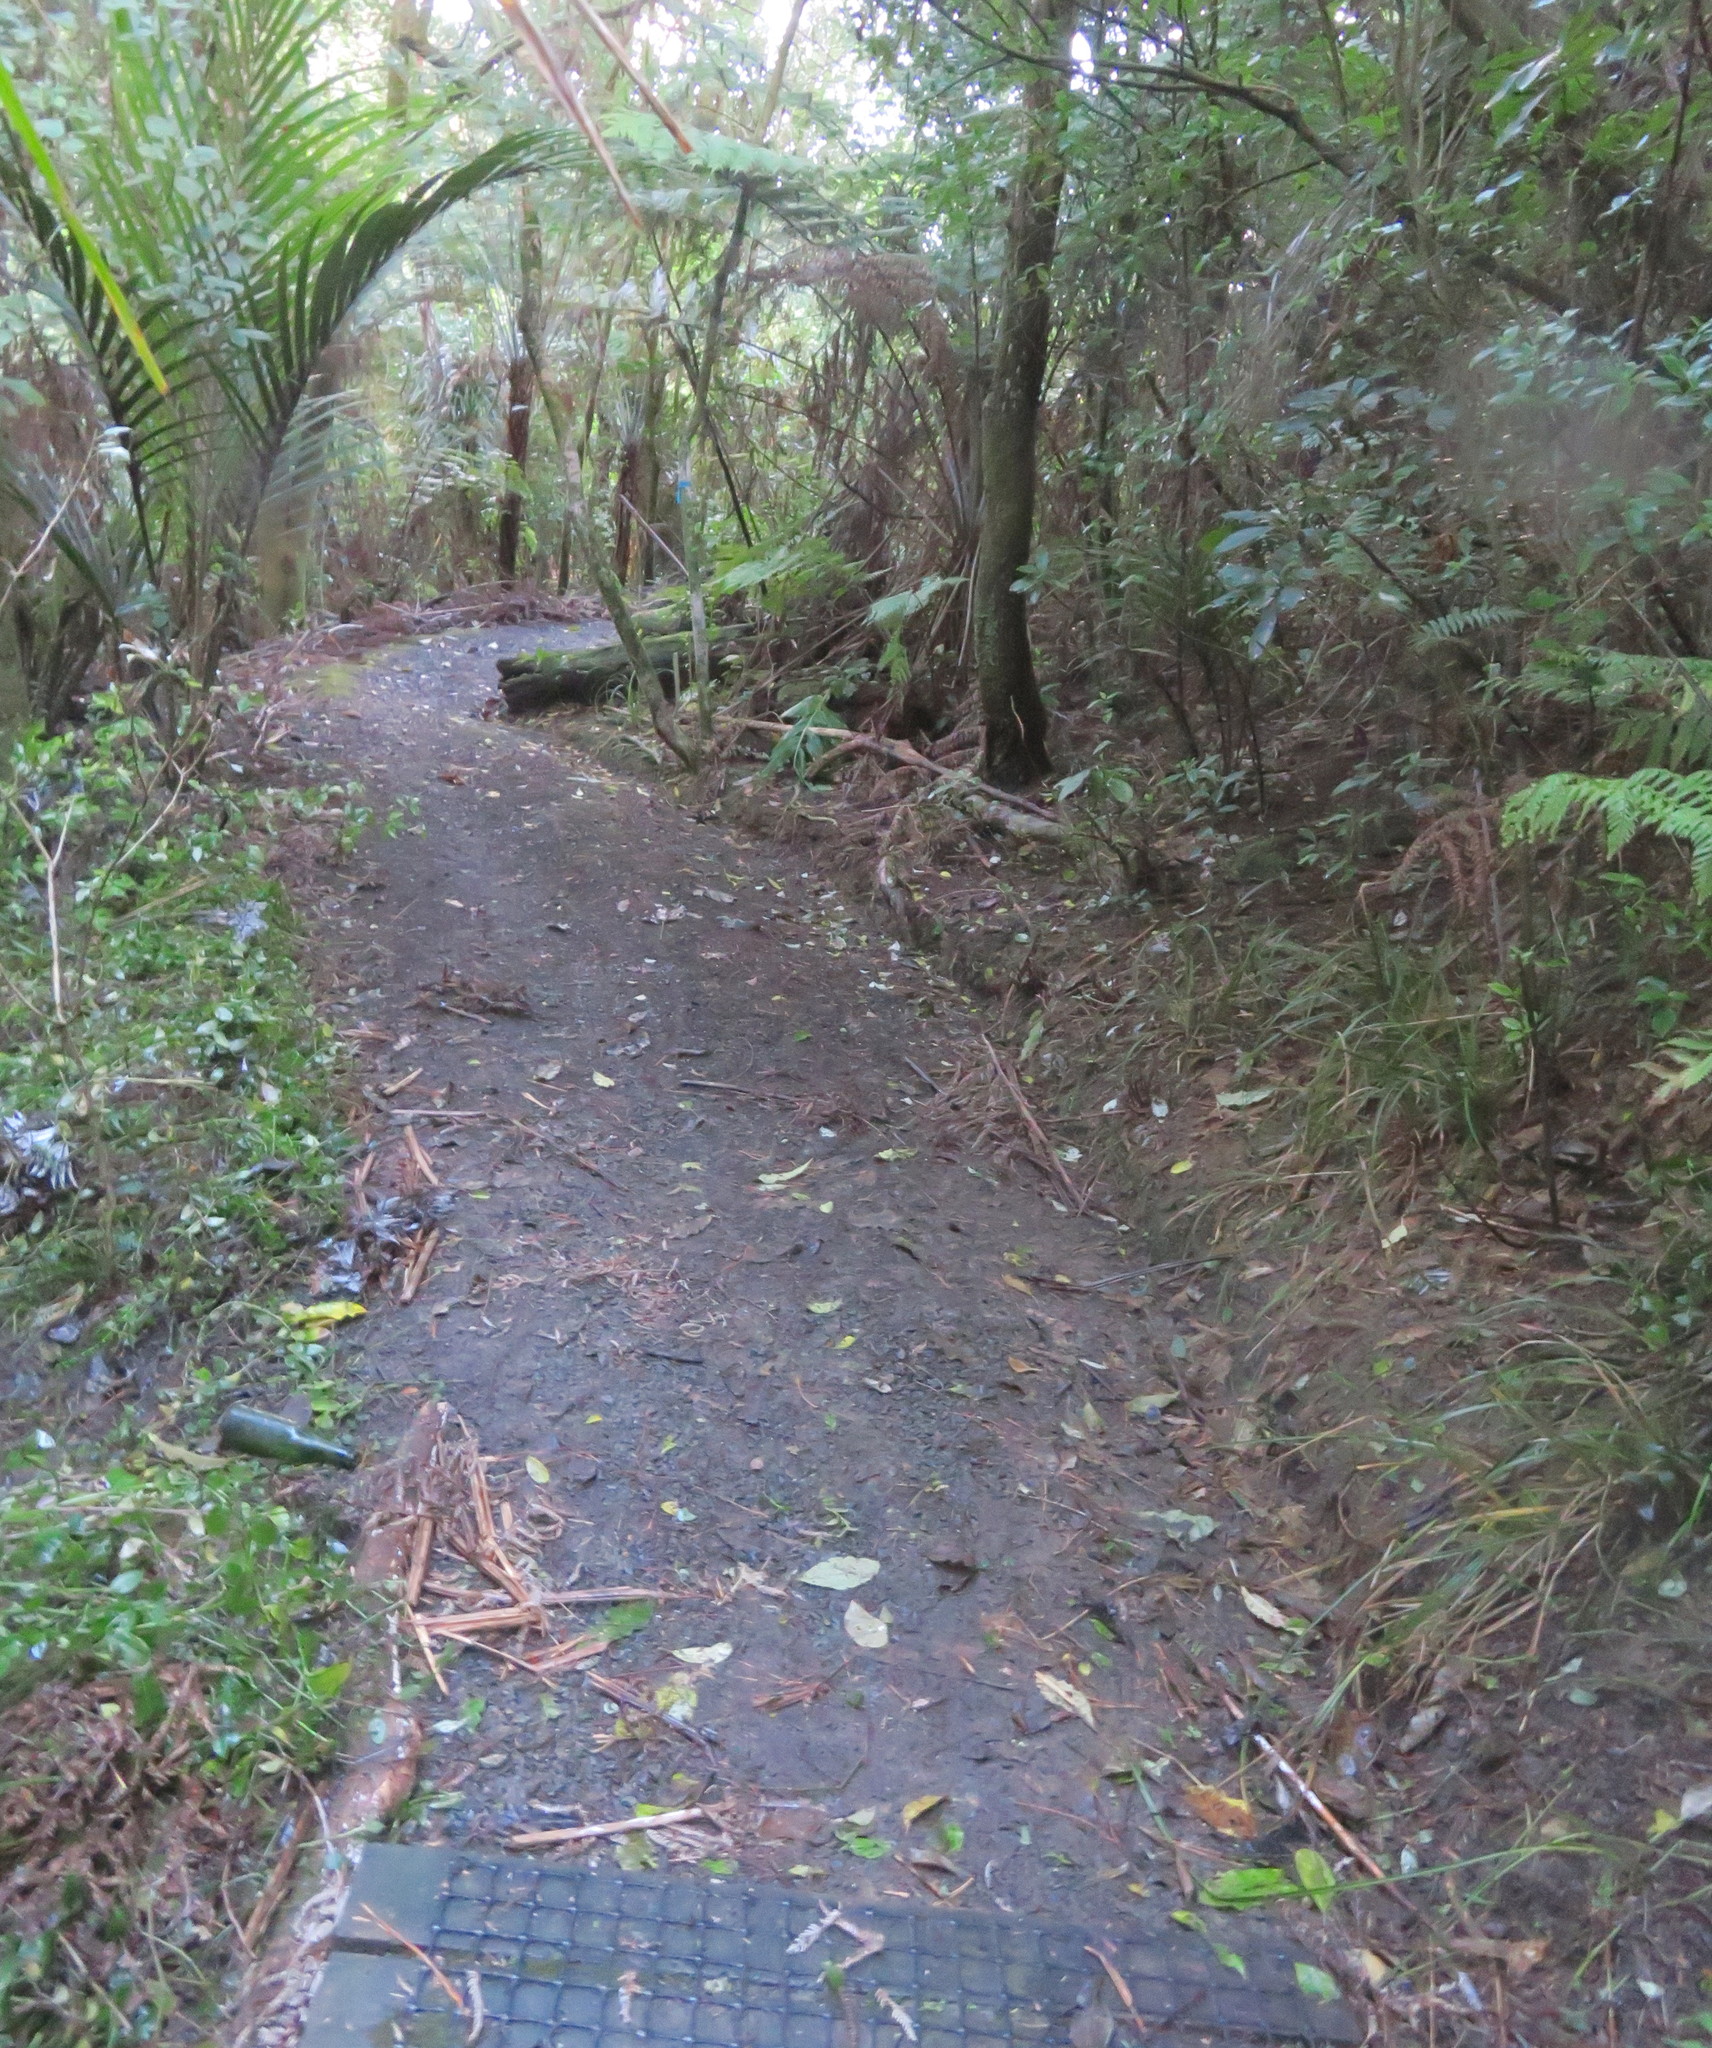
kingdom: Plantae
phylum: Tracheophyta
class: Liliopsida
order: Commelinales
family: Commelinaceae
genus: Tradescantia
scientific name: Tradescantia fluminensis
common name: Wandering-jew
